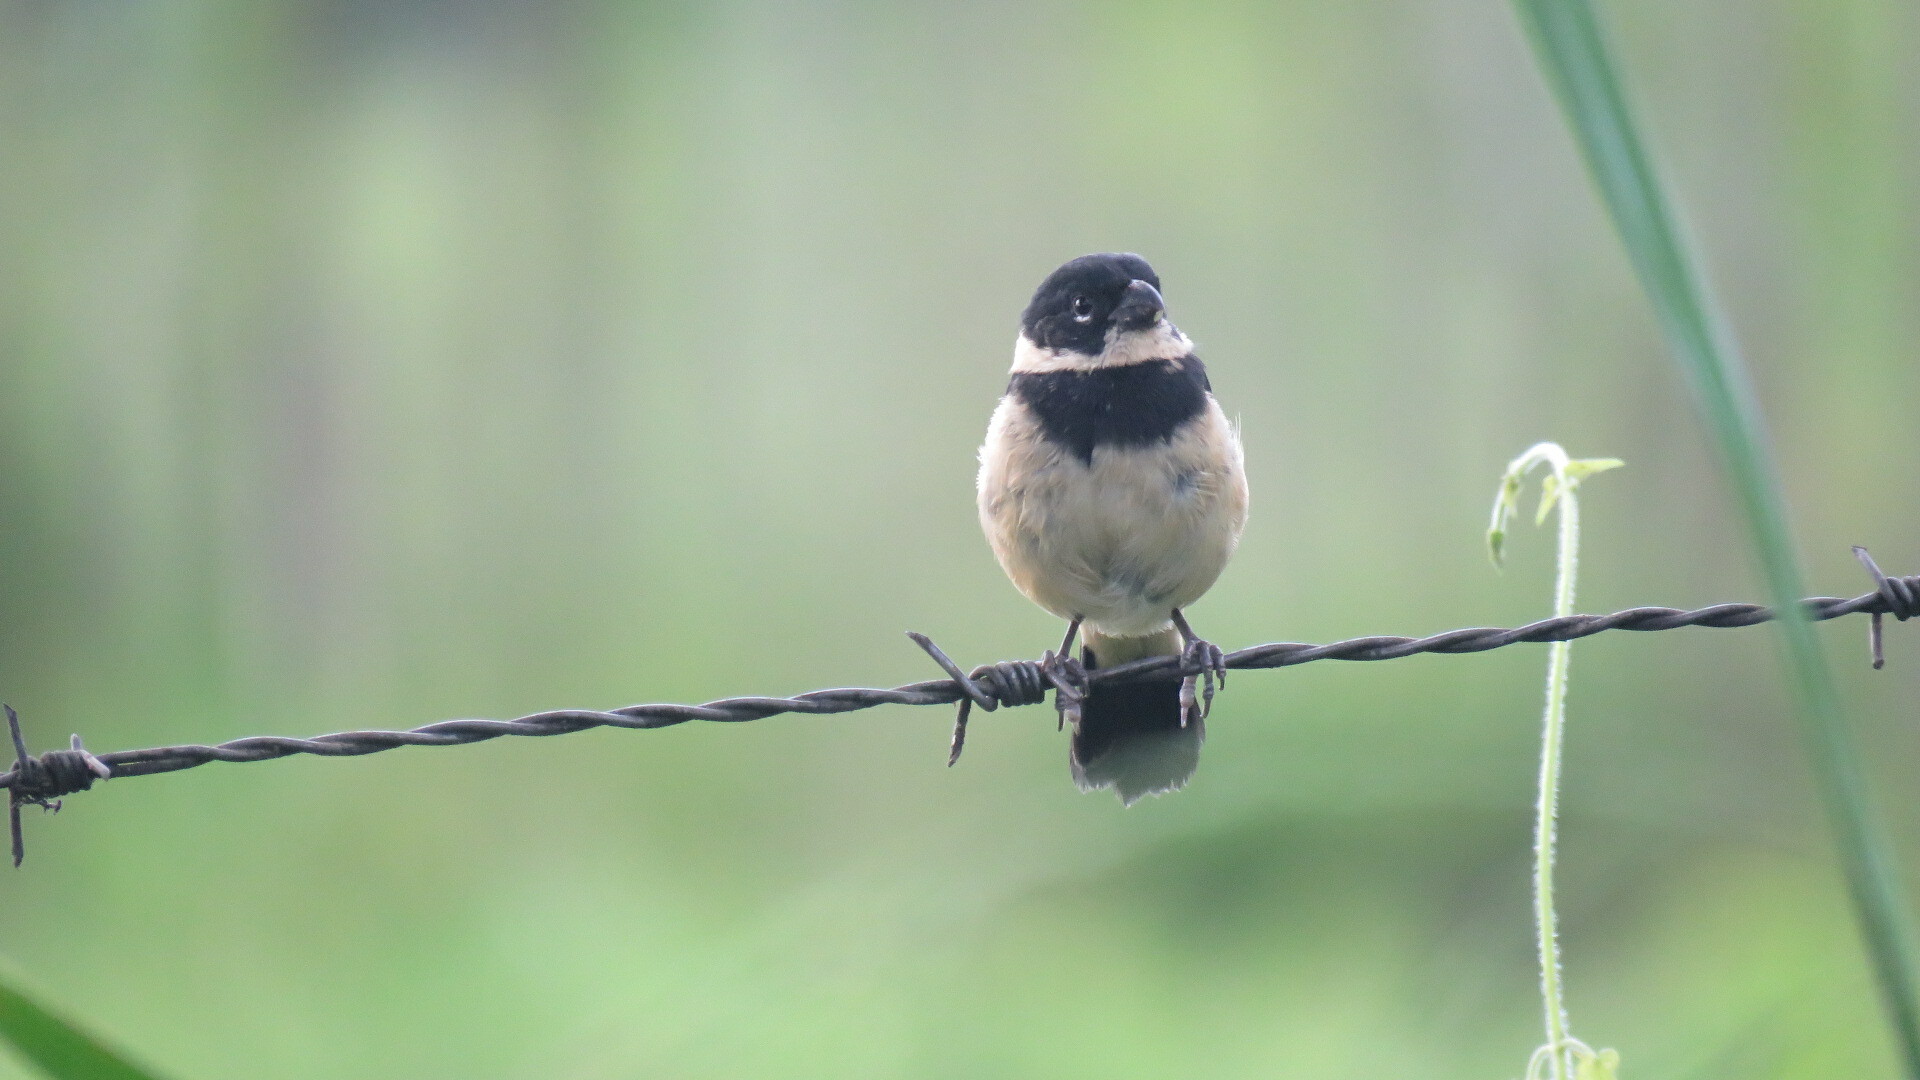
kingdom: Animalia
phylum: Chordata
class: Aves
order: Passeriformes
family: Thraupidae
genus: Sporophila
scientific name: Sporophila morelleti
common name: Morelet's seedeater
